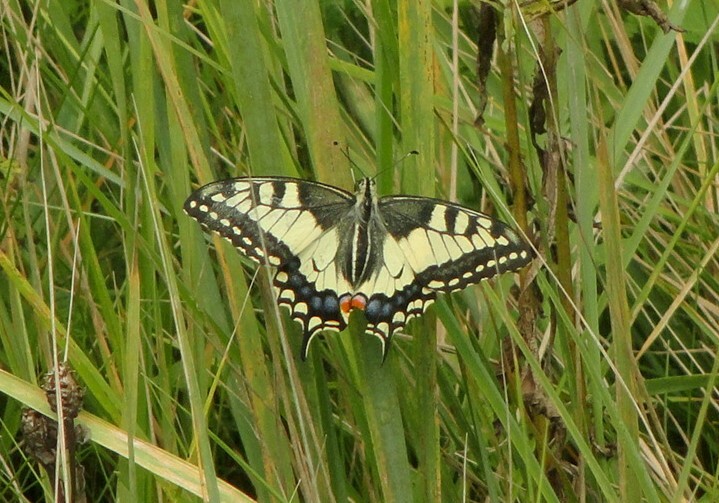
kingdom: Animalia
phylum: Arthropoda
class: Insecta
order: Lepidoptera
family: Papilionidae
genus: Papilio
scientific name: Papilio machaon
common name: Swallowtail
